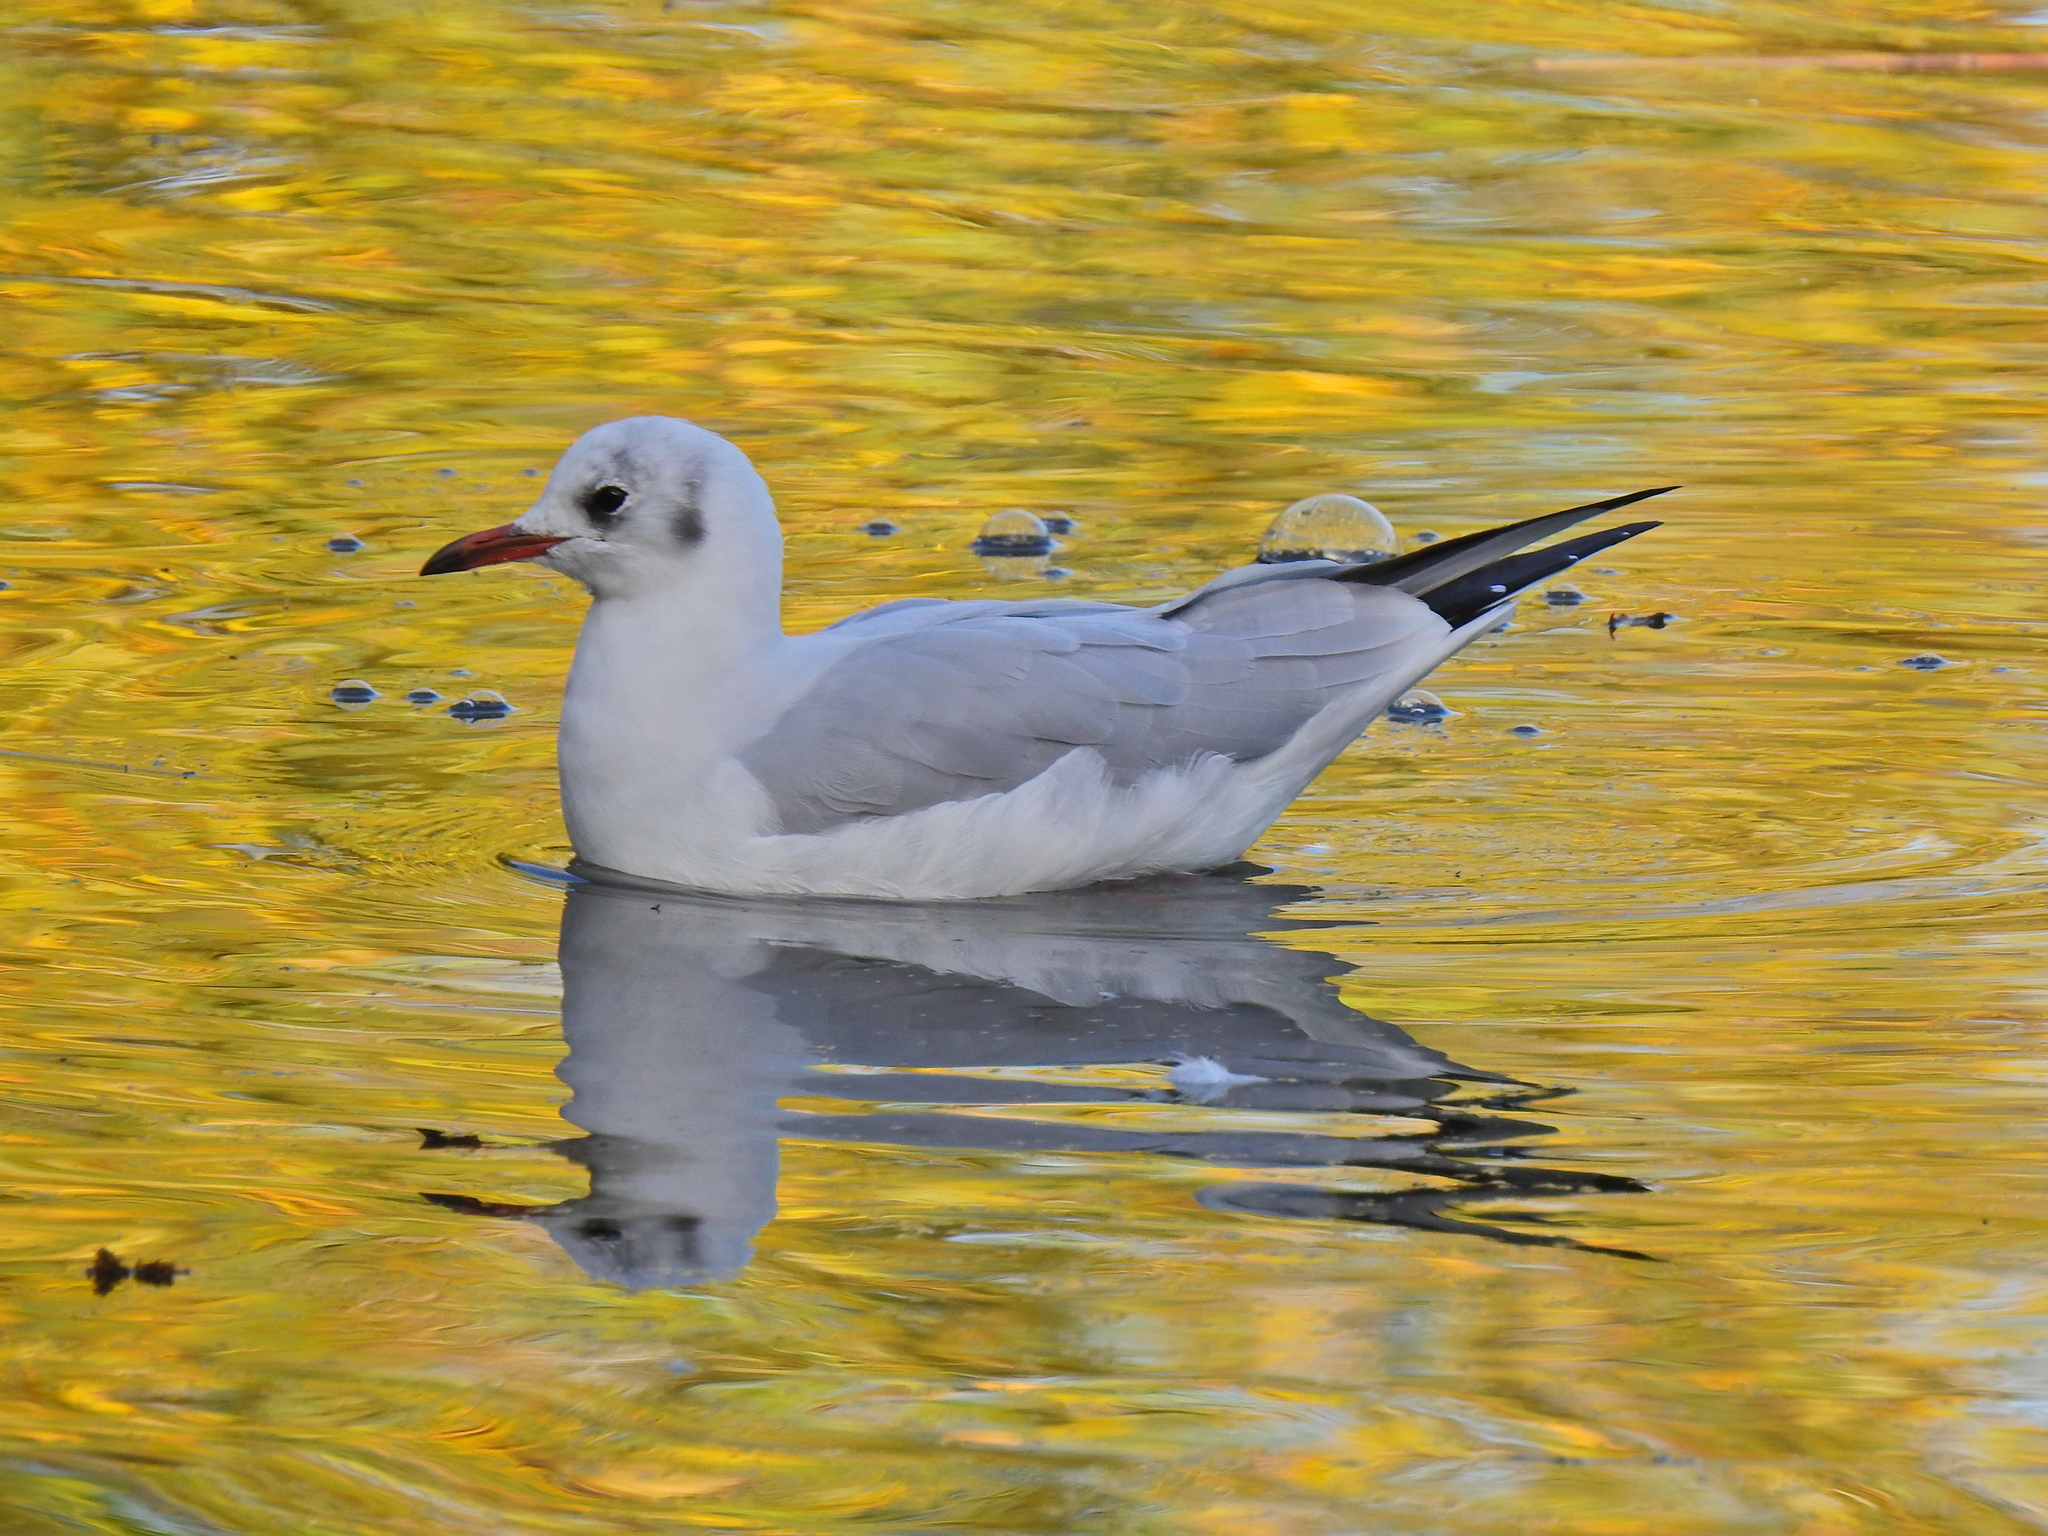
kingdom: Animalia
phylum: Chordata
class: Aves
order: Charadriiformes
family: Laridae
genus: Chroicocephalus
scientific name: Chroicocephalus ridibundus
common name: Black-headed gull
